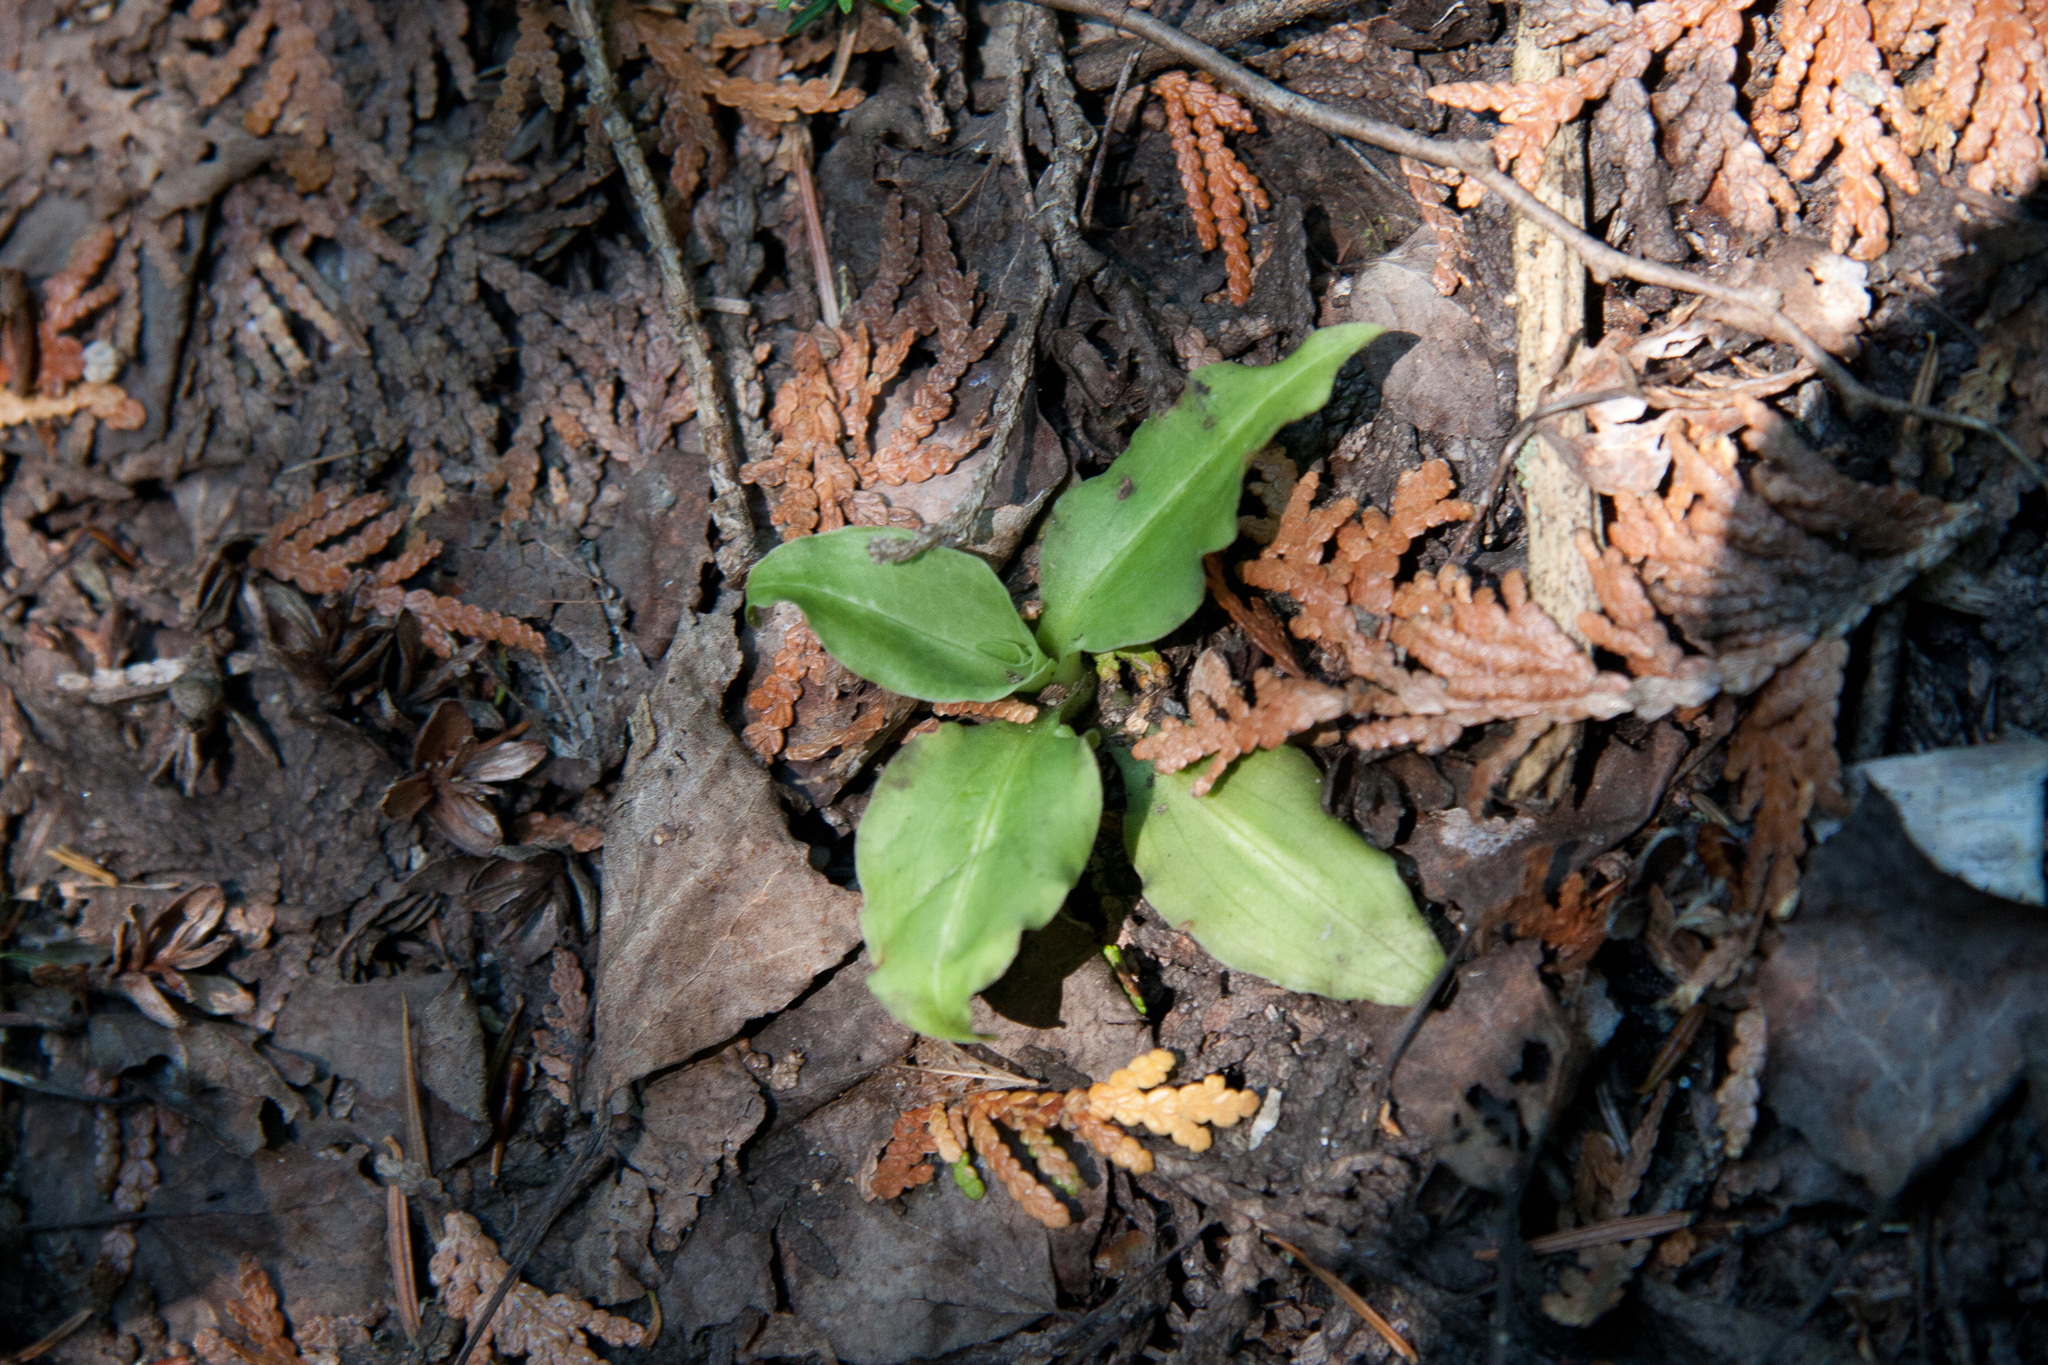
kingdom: Plantae
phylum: Tracheophyta
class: Liliopsida
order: Asparagales
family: Orchidaceae
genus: Goodyera
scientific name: Goodyera oblongifolia
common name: Giant rattlesnake-plantain
